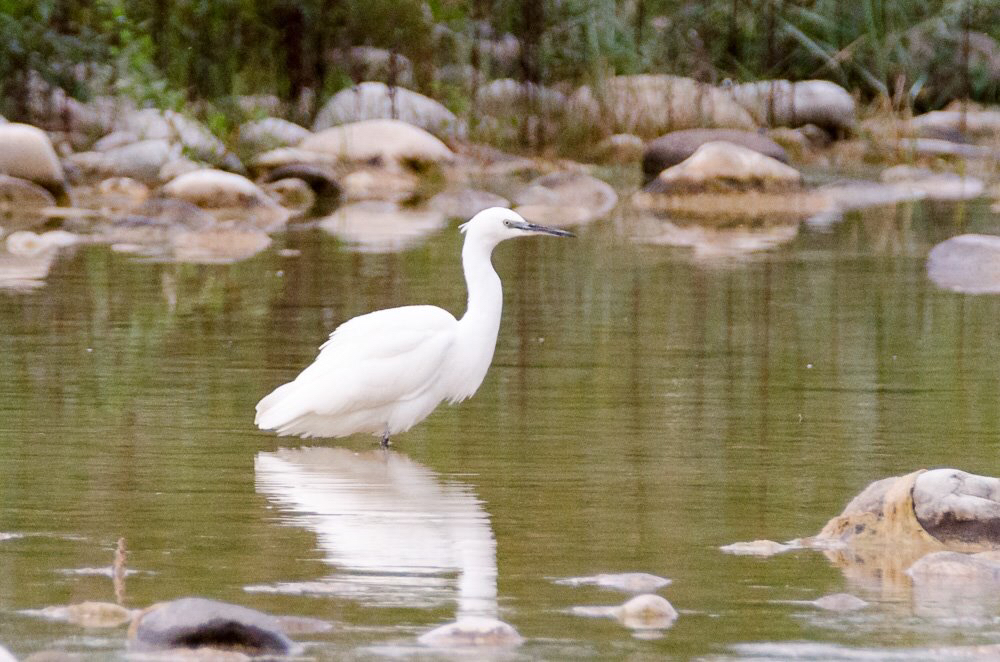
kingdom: Animalia
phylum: Chordata
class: Aves
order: Pelecaniformes
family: Ardeidae
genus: Egretta
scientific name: Egretta garzetta
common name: Little egret
